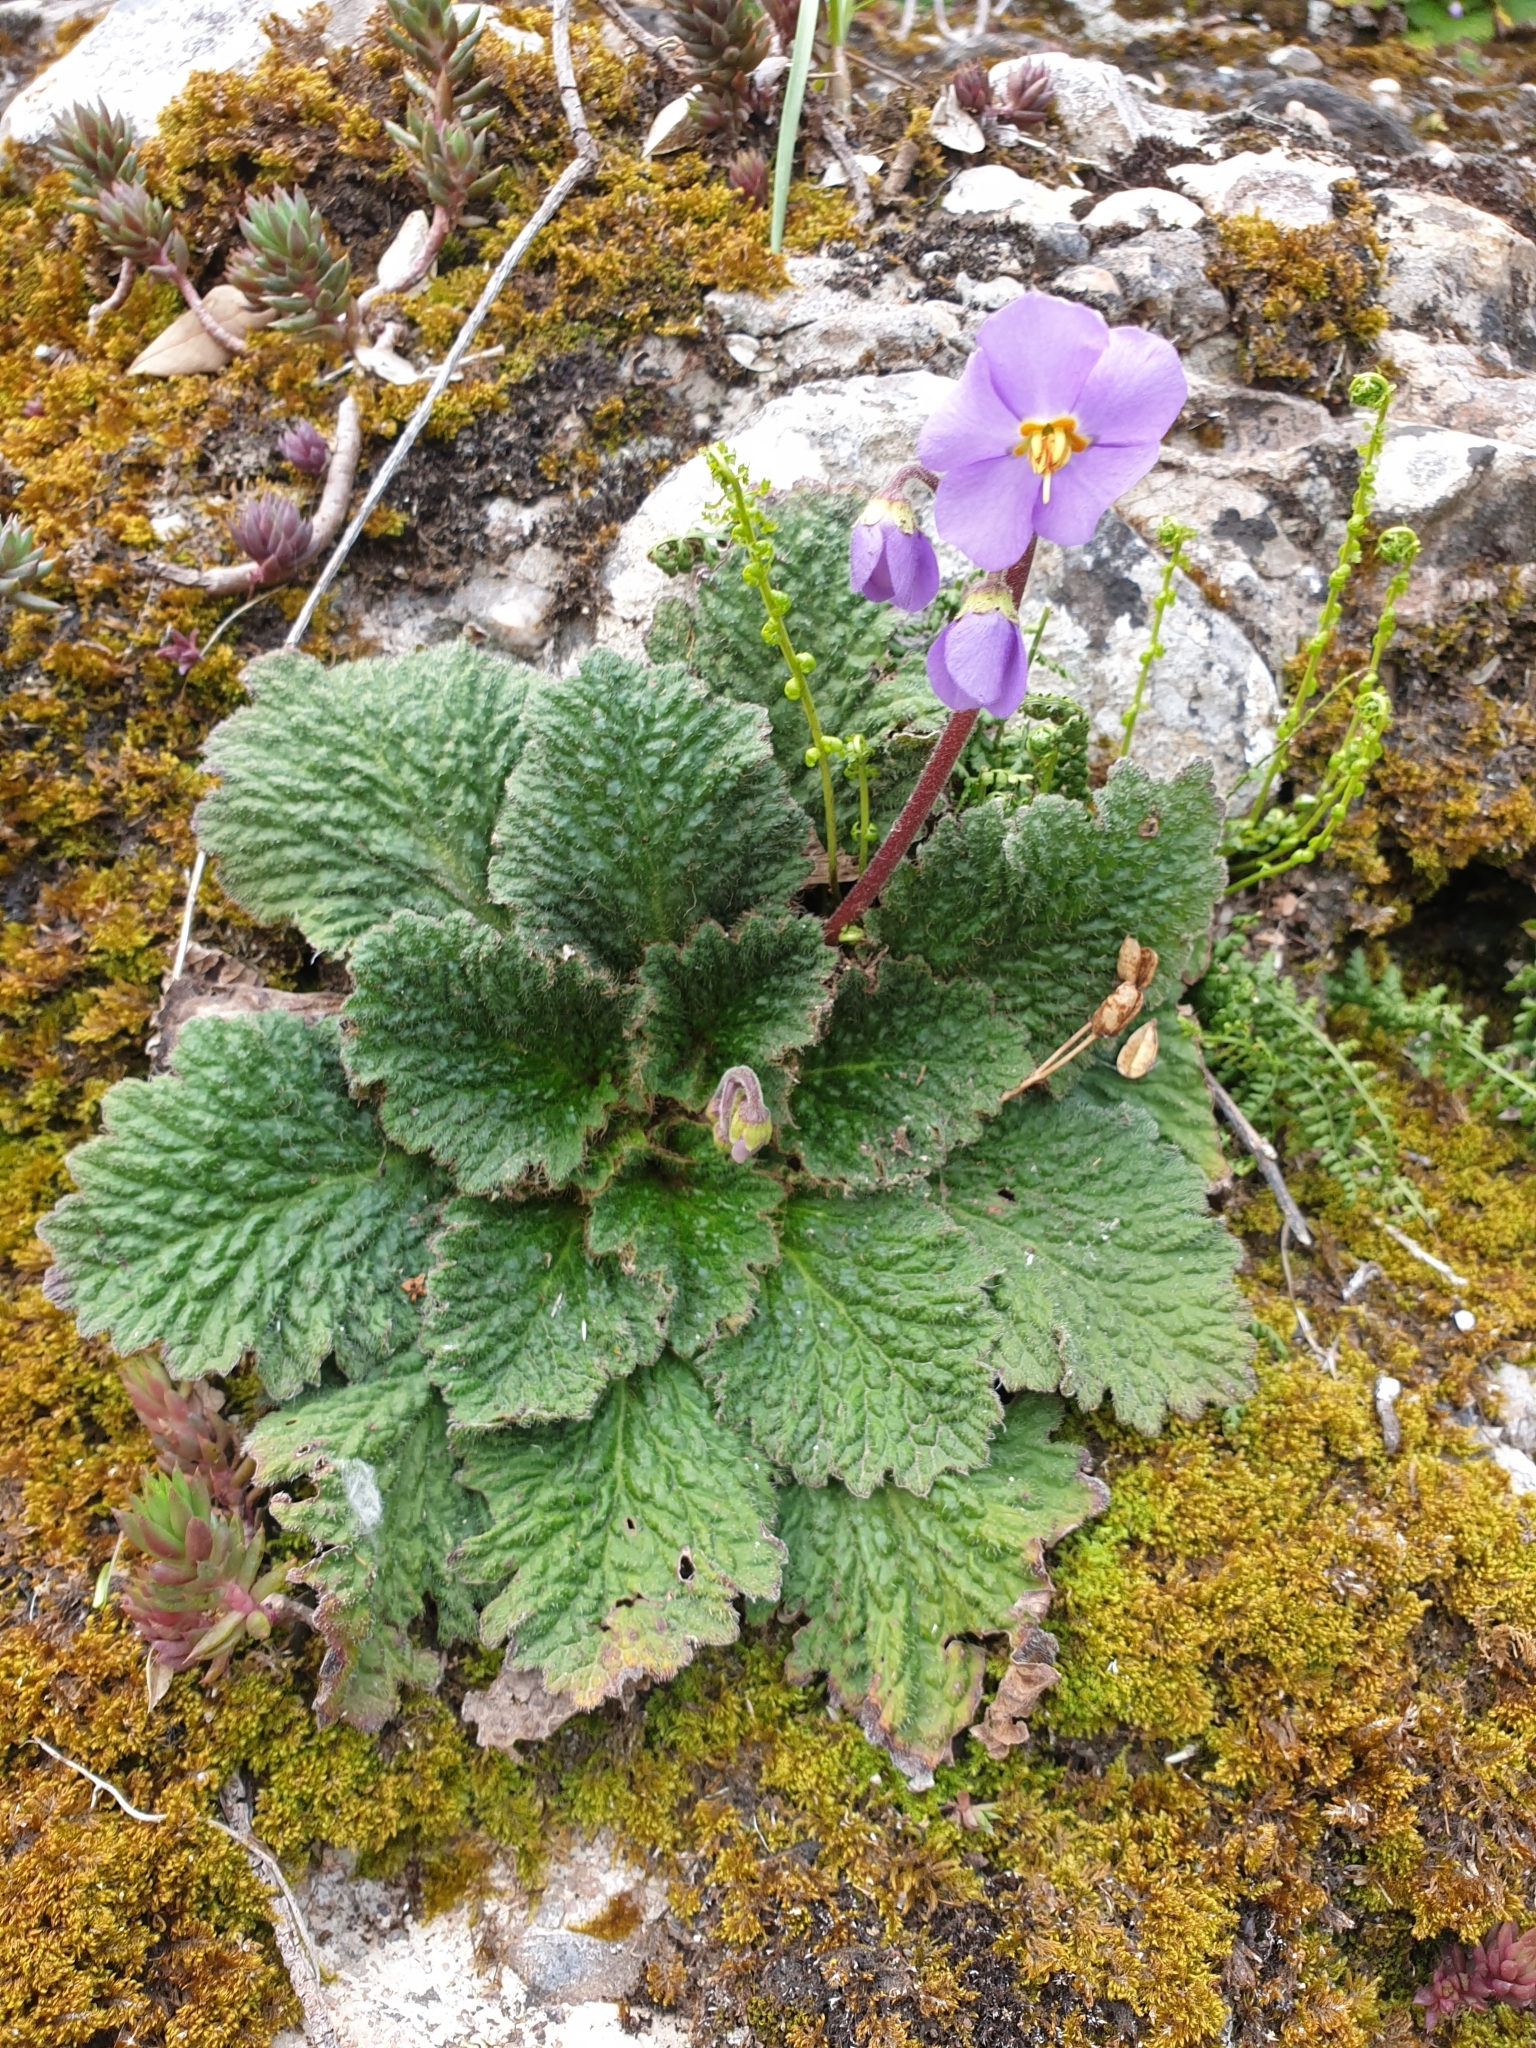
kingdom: Plantae
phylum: Tracheophyta
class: Magnoliopsida
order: Lamiales
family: Gesneriaceae
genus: Ramonda
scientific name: Ramonda myconi
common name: Pyrenean-violet
